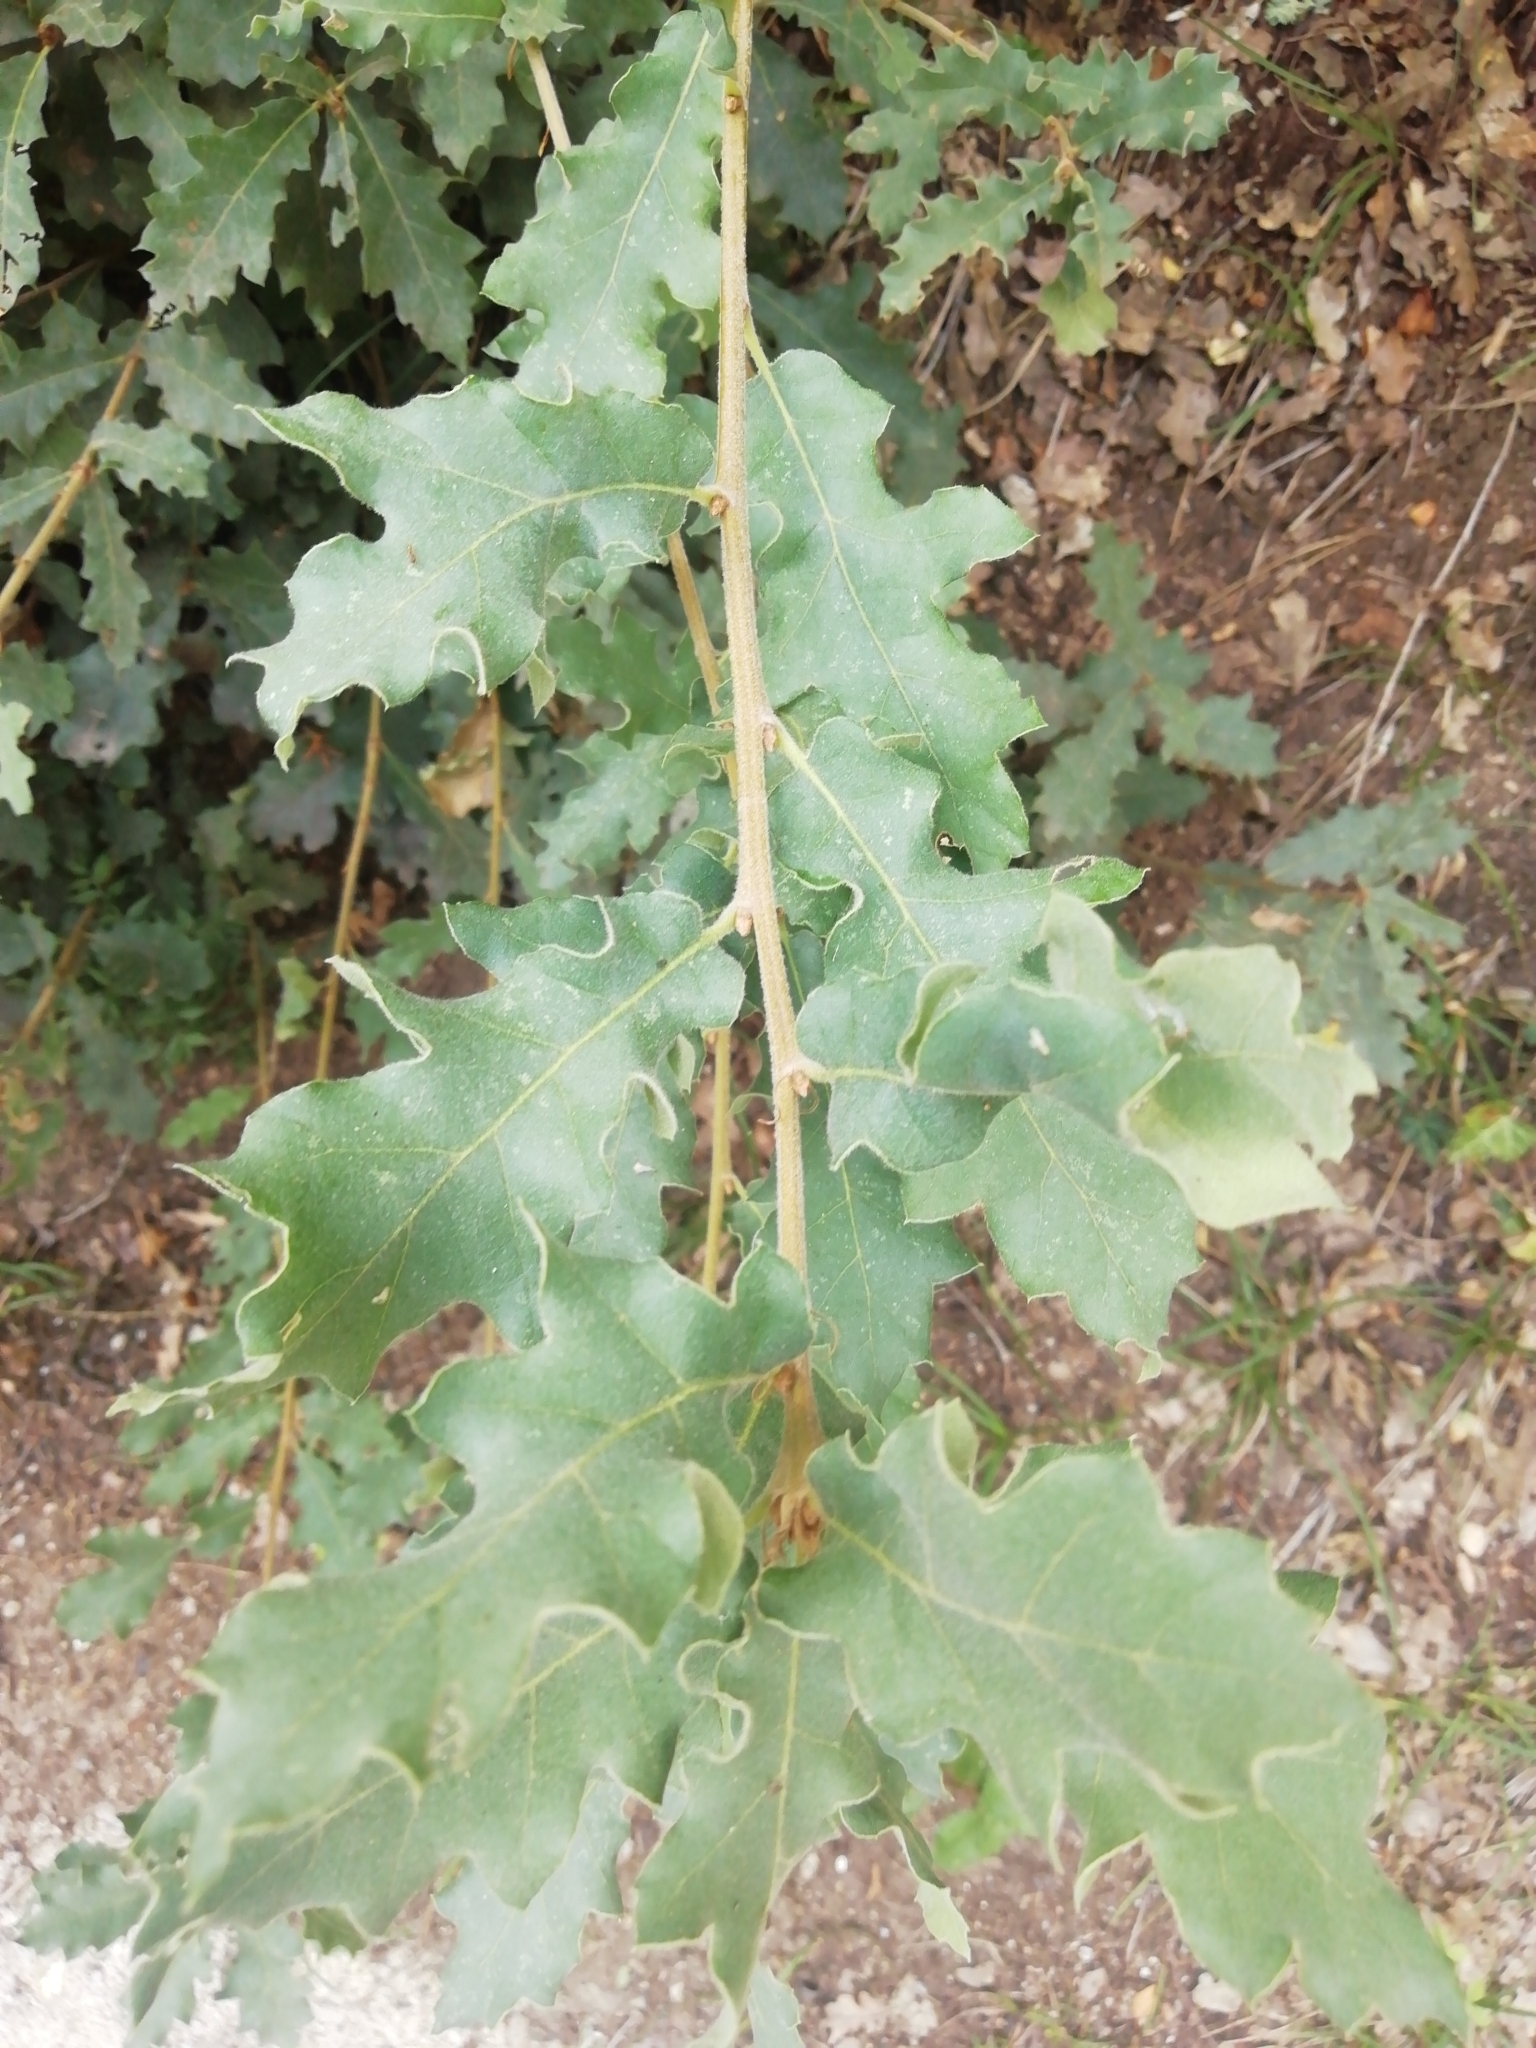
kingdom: Plantae
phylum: Tracheophyta
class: Magnoliopsida
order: Fagales
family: Fagaceae
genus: Quercus
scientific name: Quercus pubescens
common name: Downy oak
